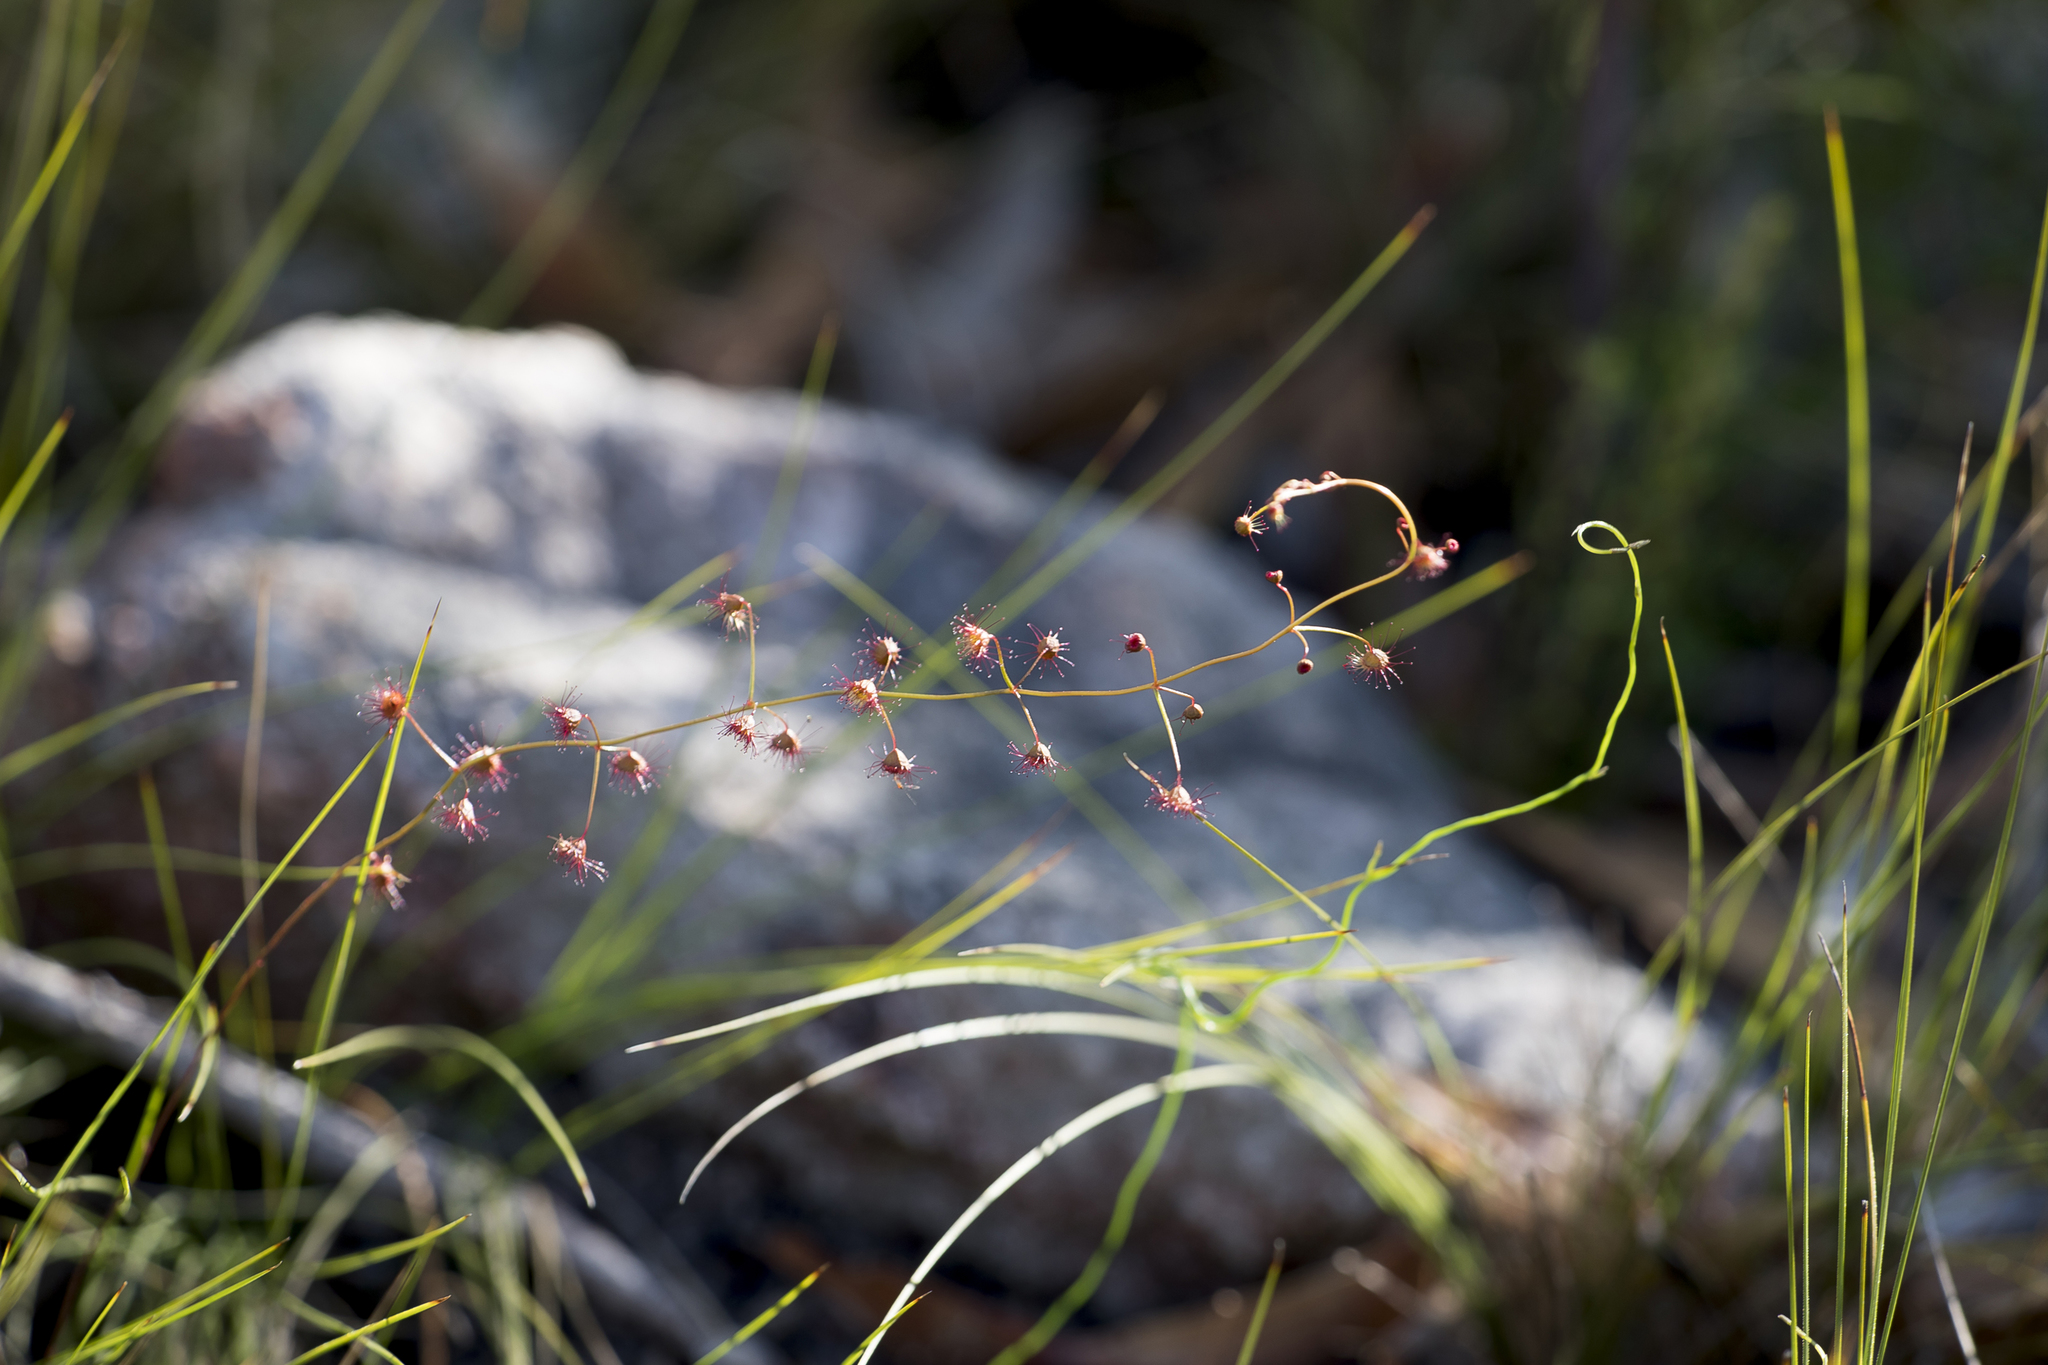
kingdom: Plantae
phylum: Tracheophyta
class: Magnoliopsida
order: Caryophyllales
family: Droseraceae
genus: Drosera
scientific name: Drosera planchonii
